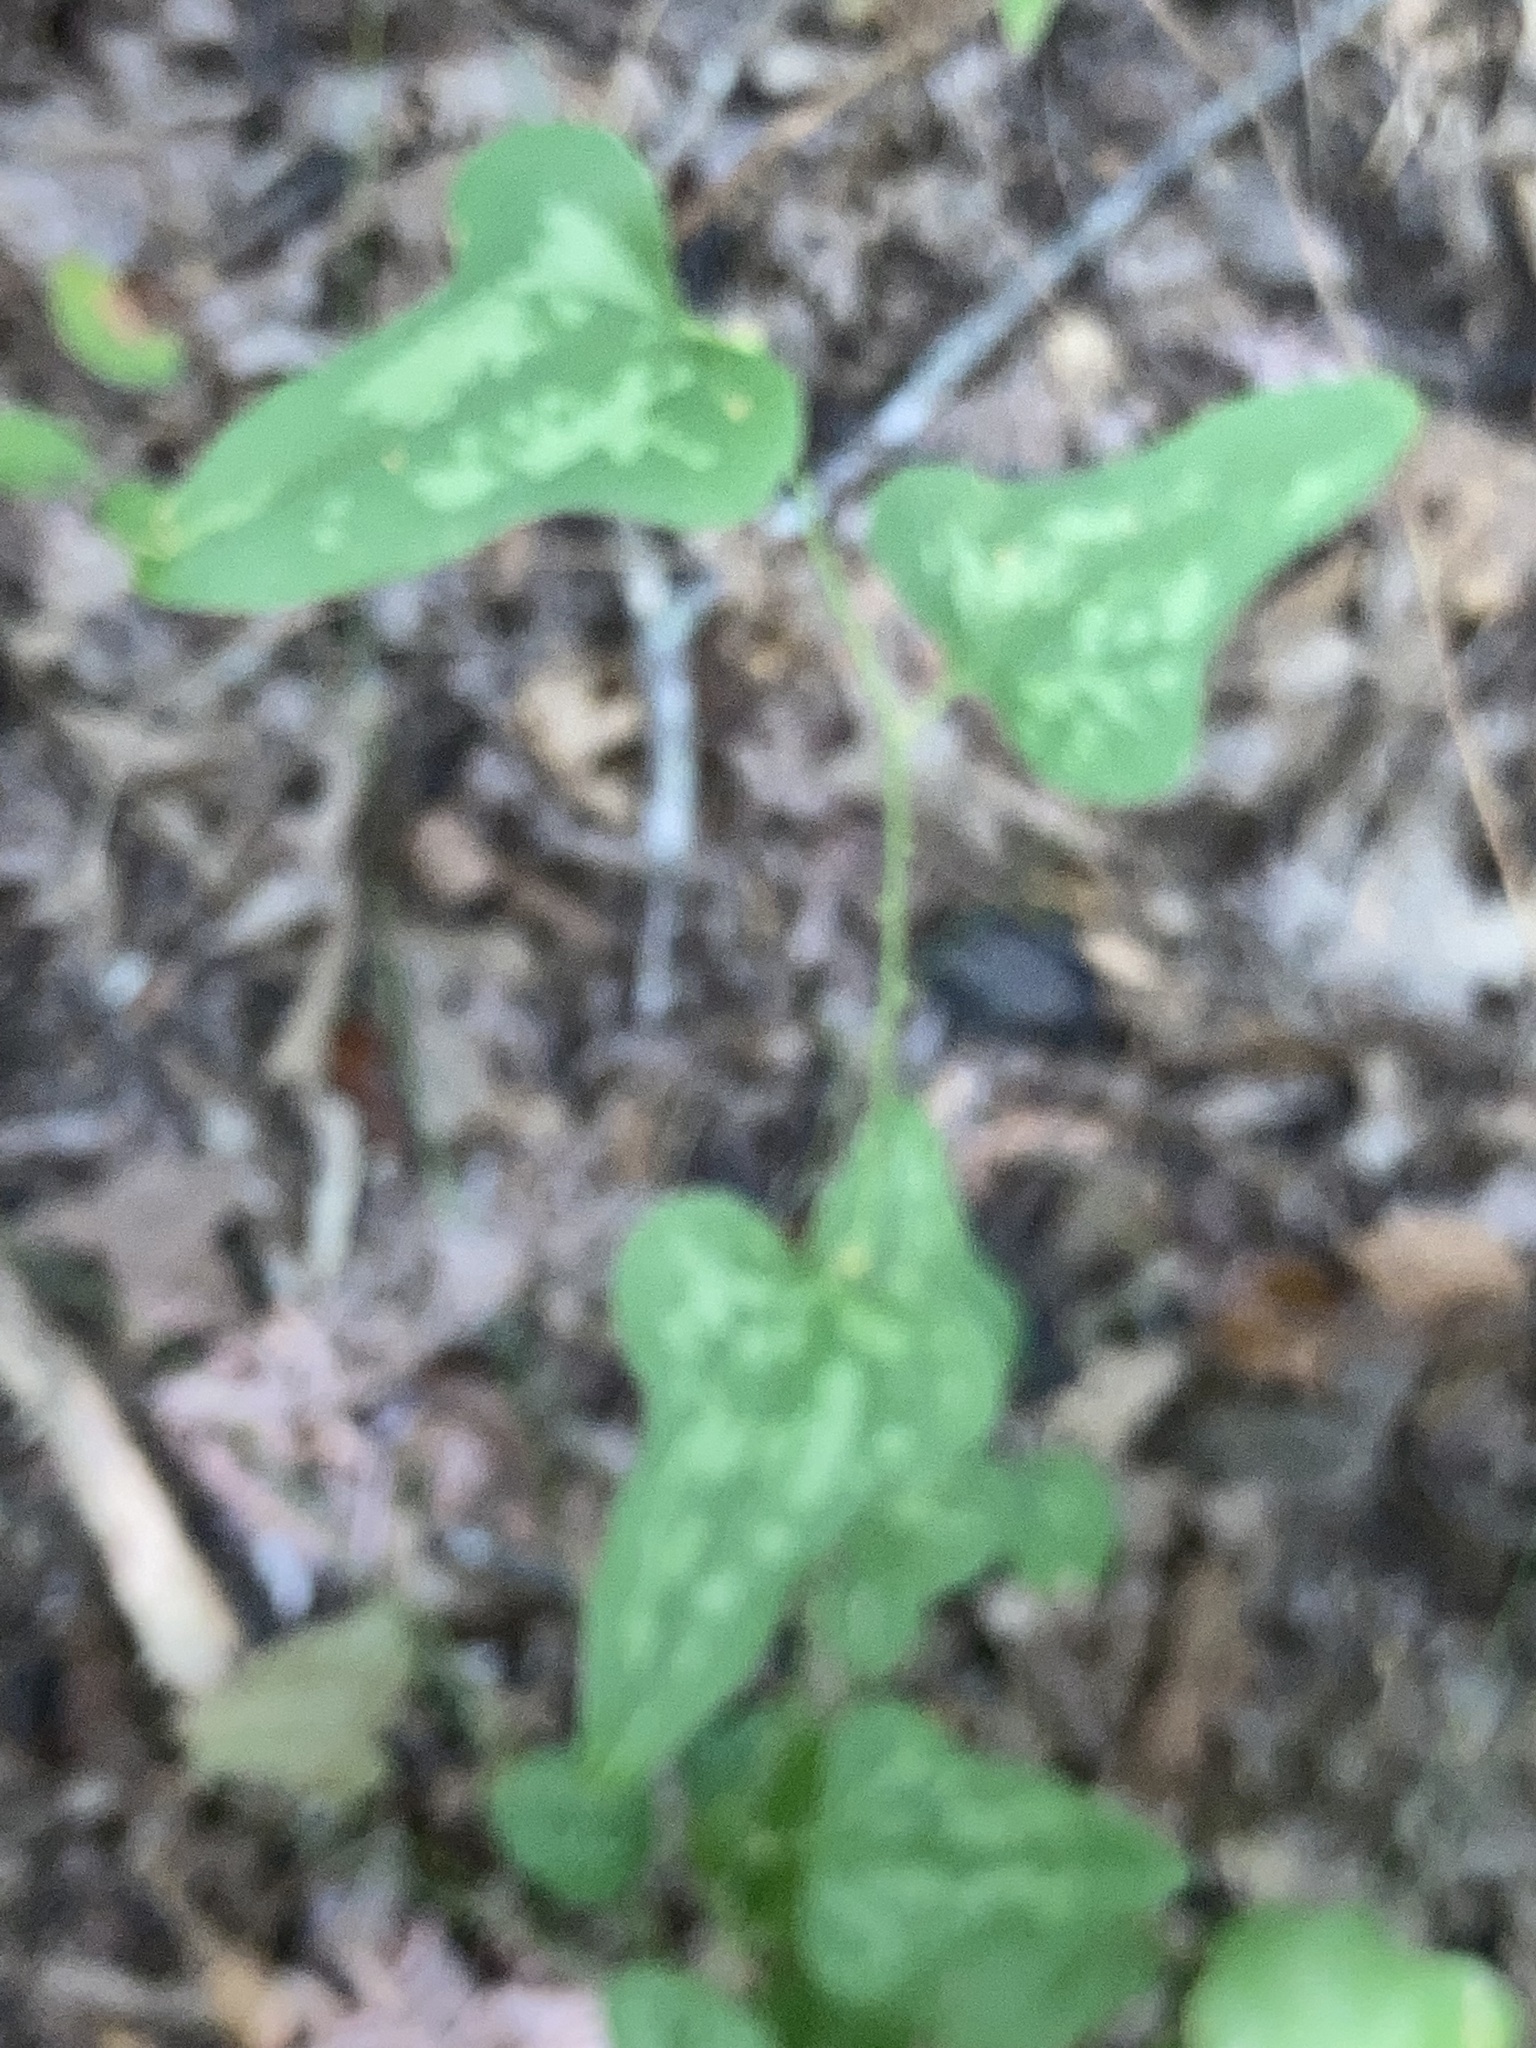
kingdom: Plantae
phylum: Tracheophyta
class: Liliopsida
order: Liliales
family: Smilacaceae
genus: Smilax
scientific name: Smilax bona-nox
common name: Catbrier
